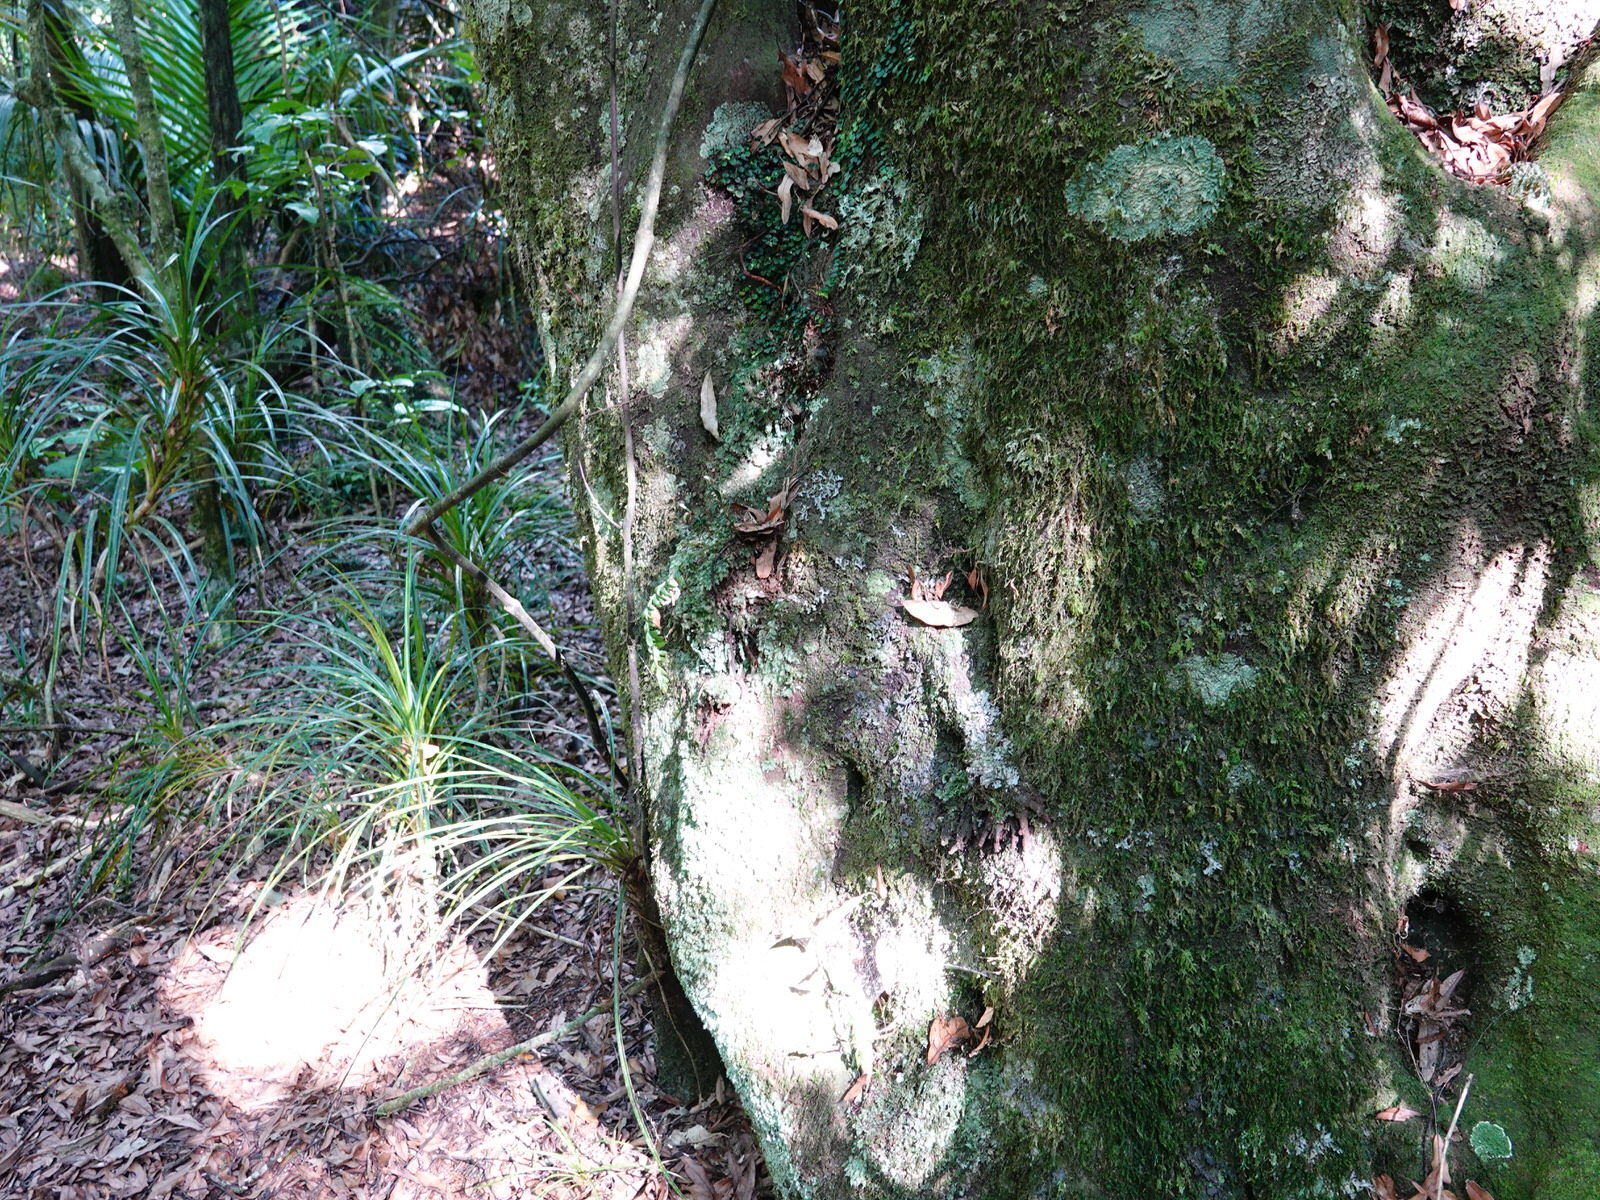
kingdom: Plantae
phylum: Tracheophyta
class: Polypodiopsida
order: Psilotales
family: Psilotaceae
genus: Tmesipteris
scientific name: Tmesipteris tannensis
